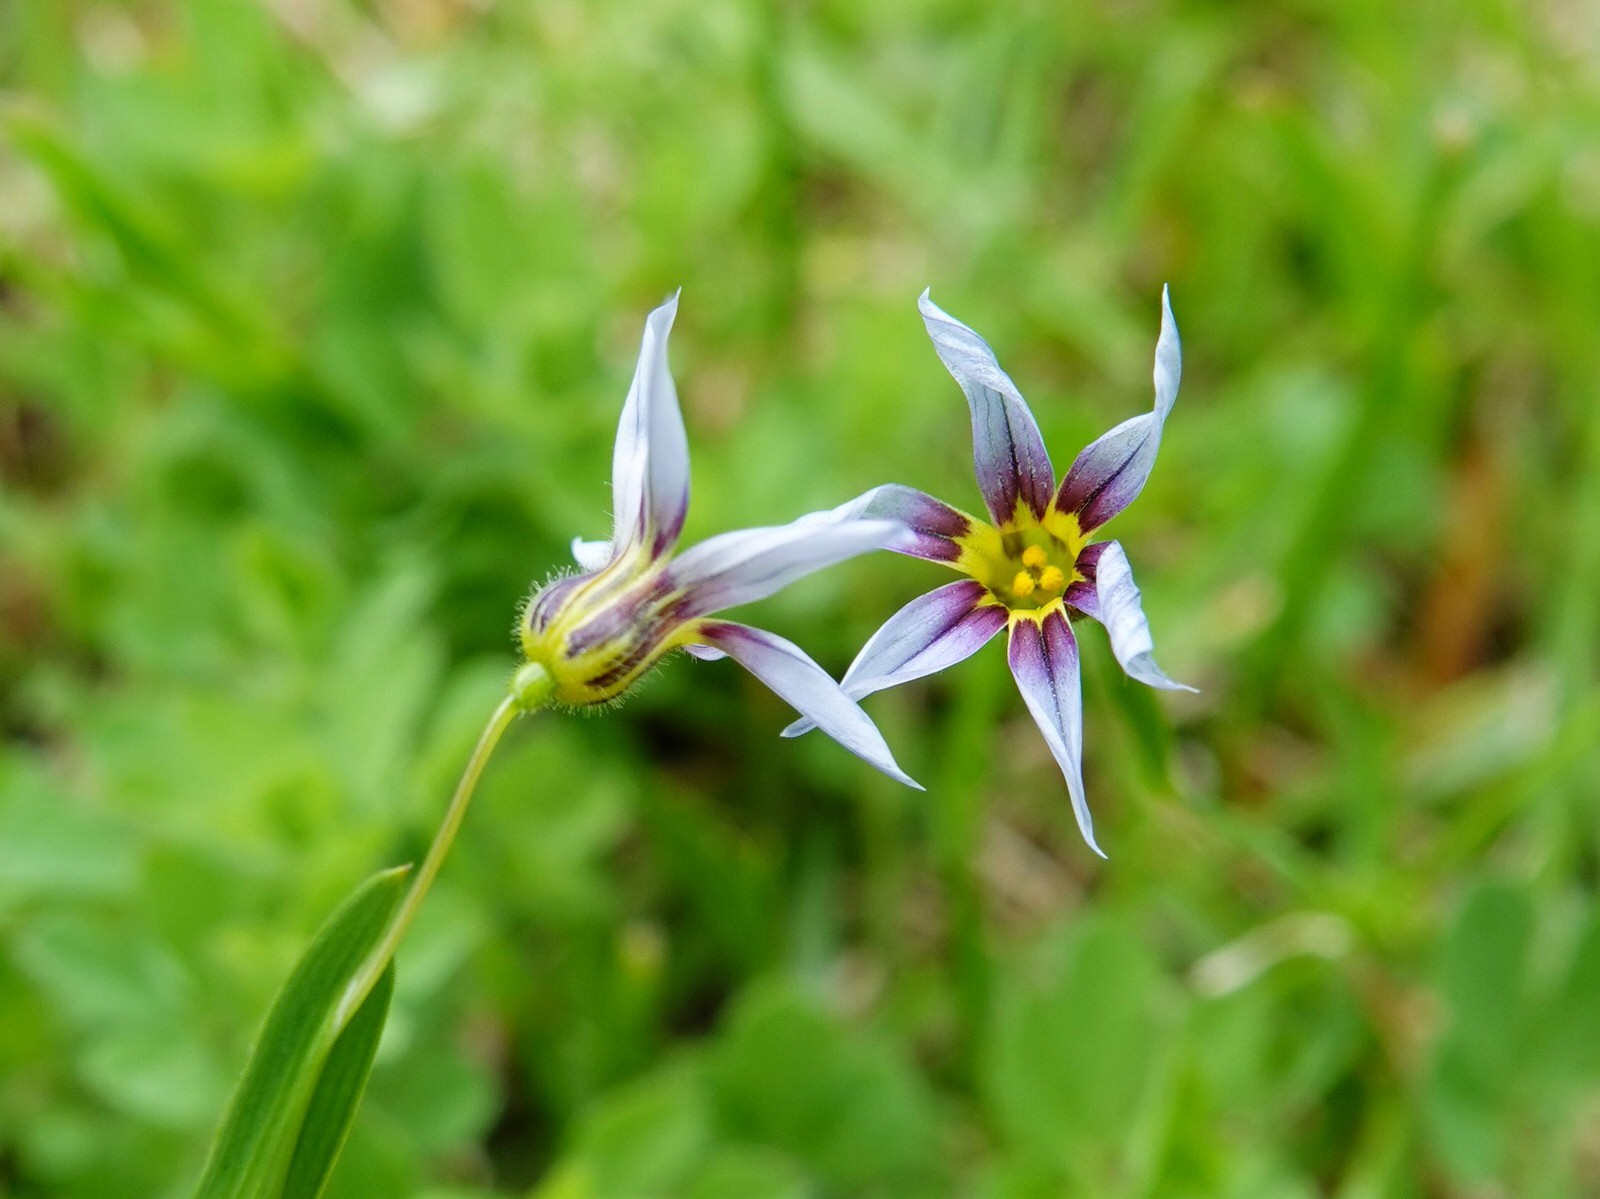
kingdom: Plantae
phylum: Tracheophyta
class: Liliopsida
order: Asparagales
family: Iridaceae
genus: Sisyrinchium
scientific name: Sisyrinchium micranthum
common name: Bermuda pigroot
